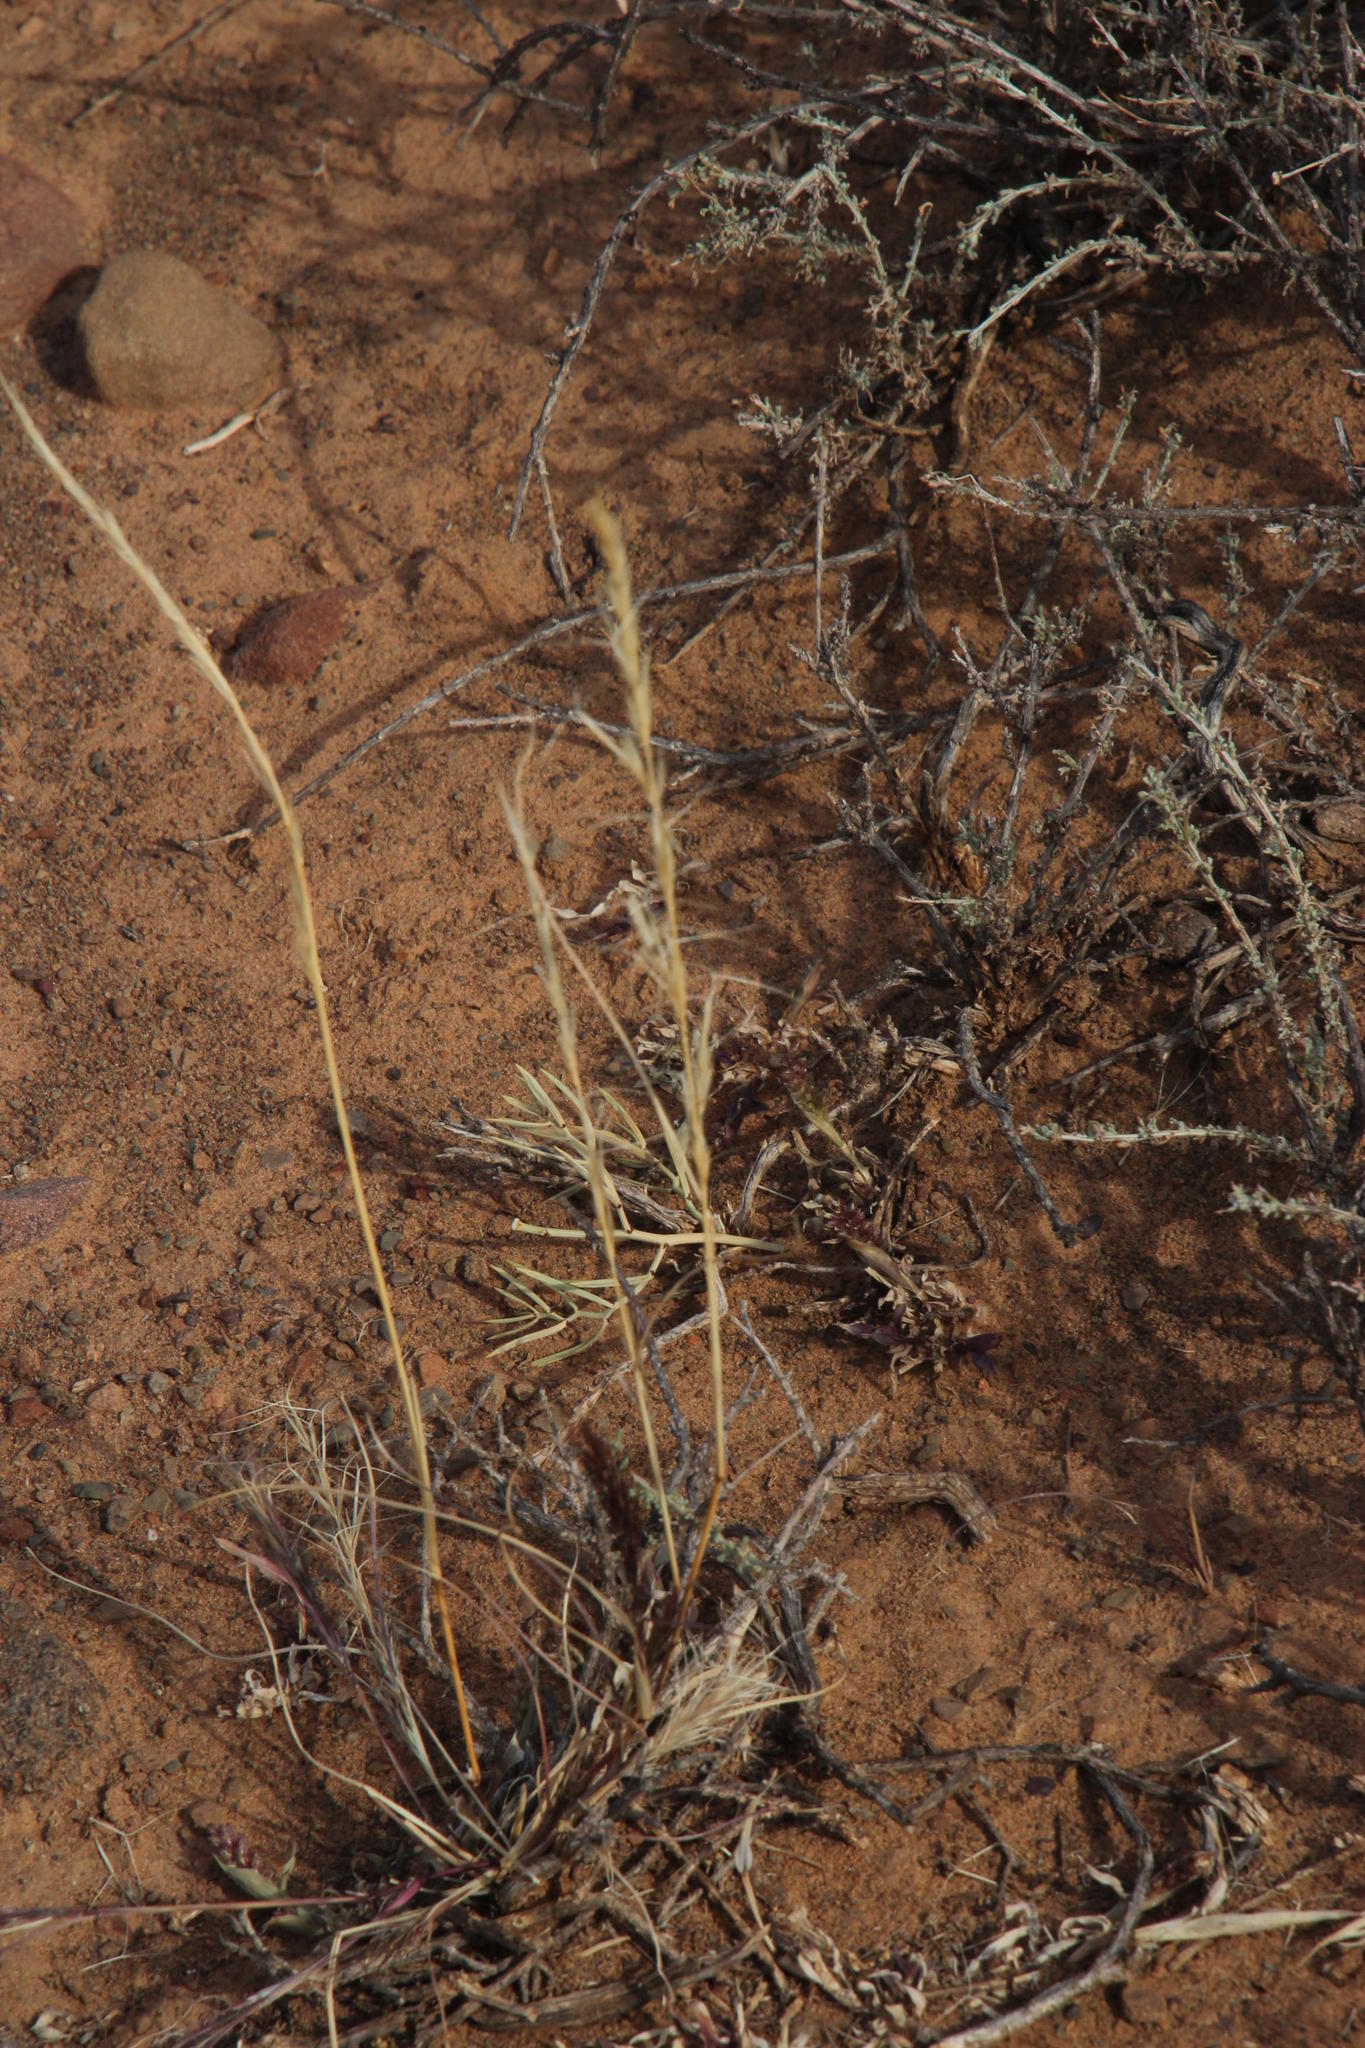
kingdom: Plantae
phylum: Tracheophyta
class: Liliopsida
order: Poales
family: Poaceae
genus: Aristida
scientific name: Aristida adscensionis
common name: Sixweeks threeawn
